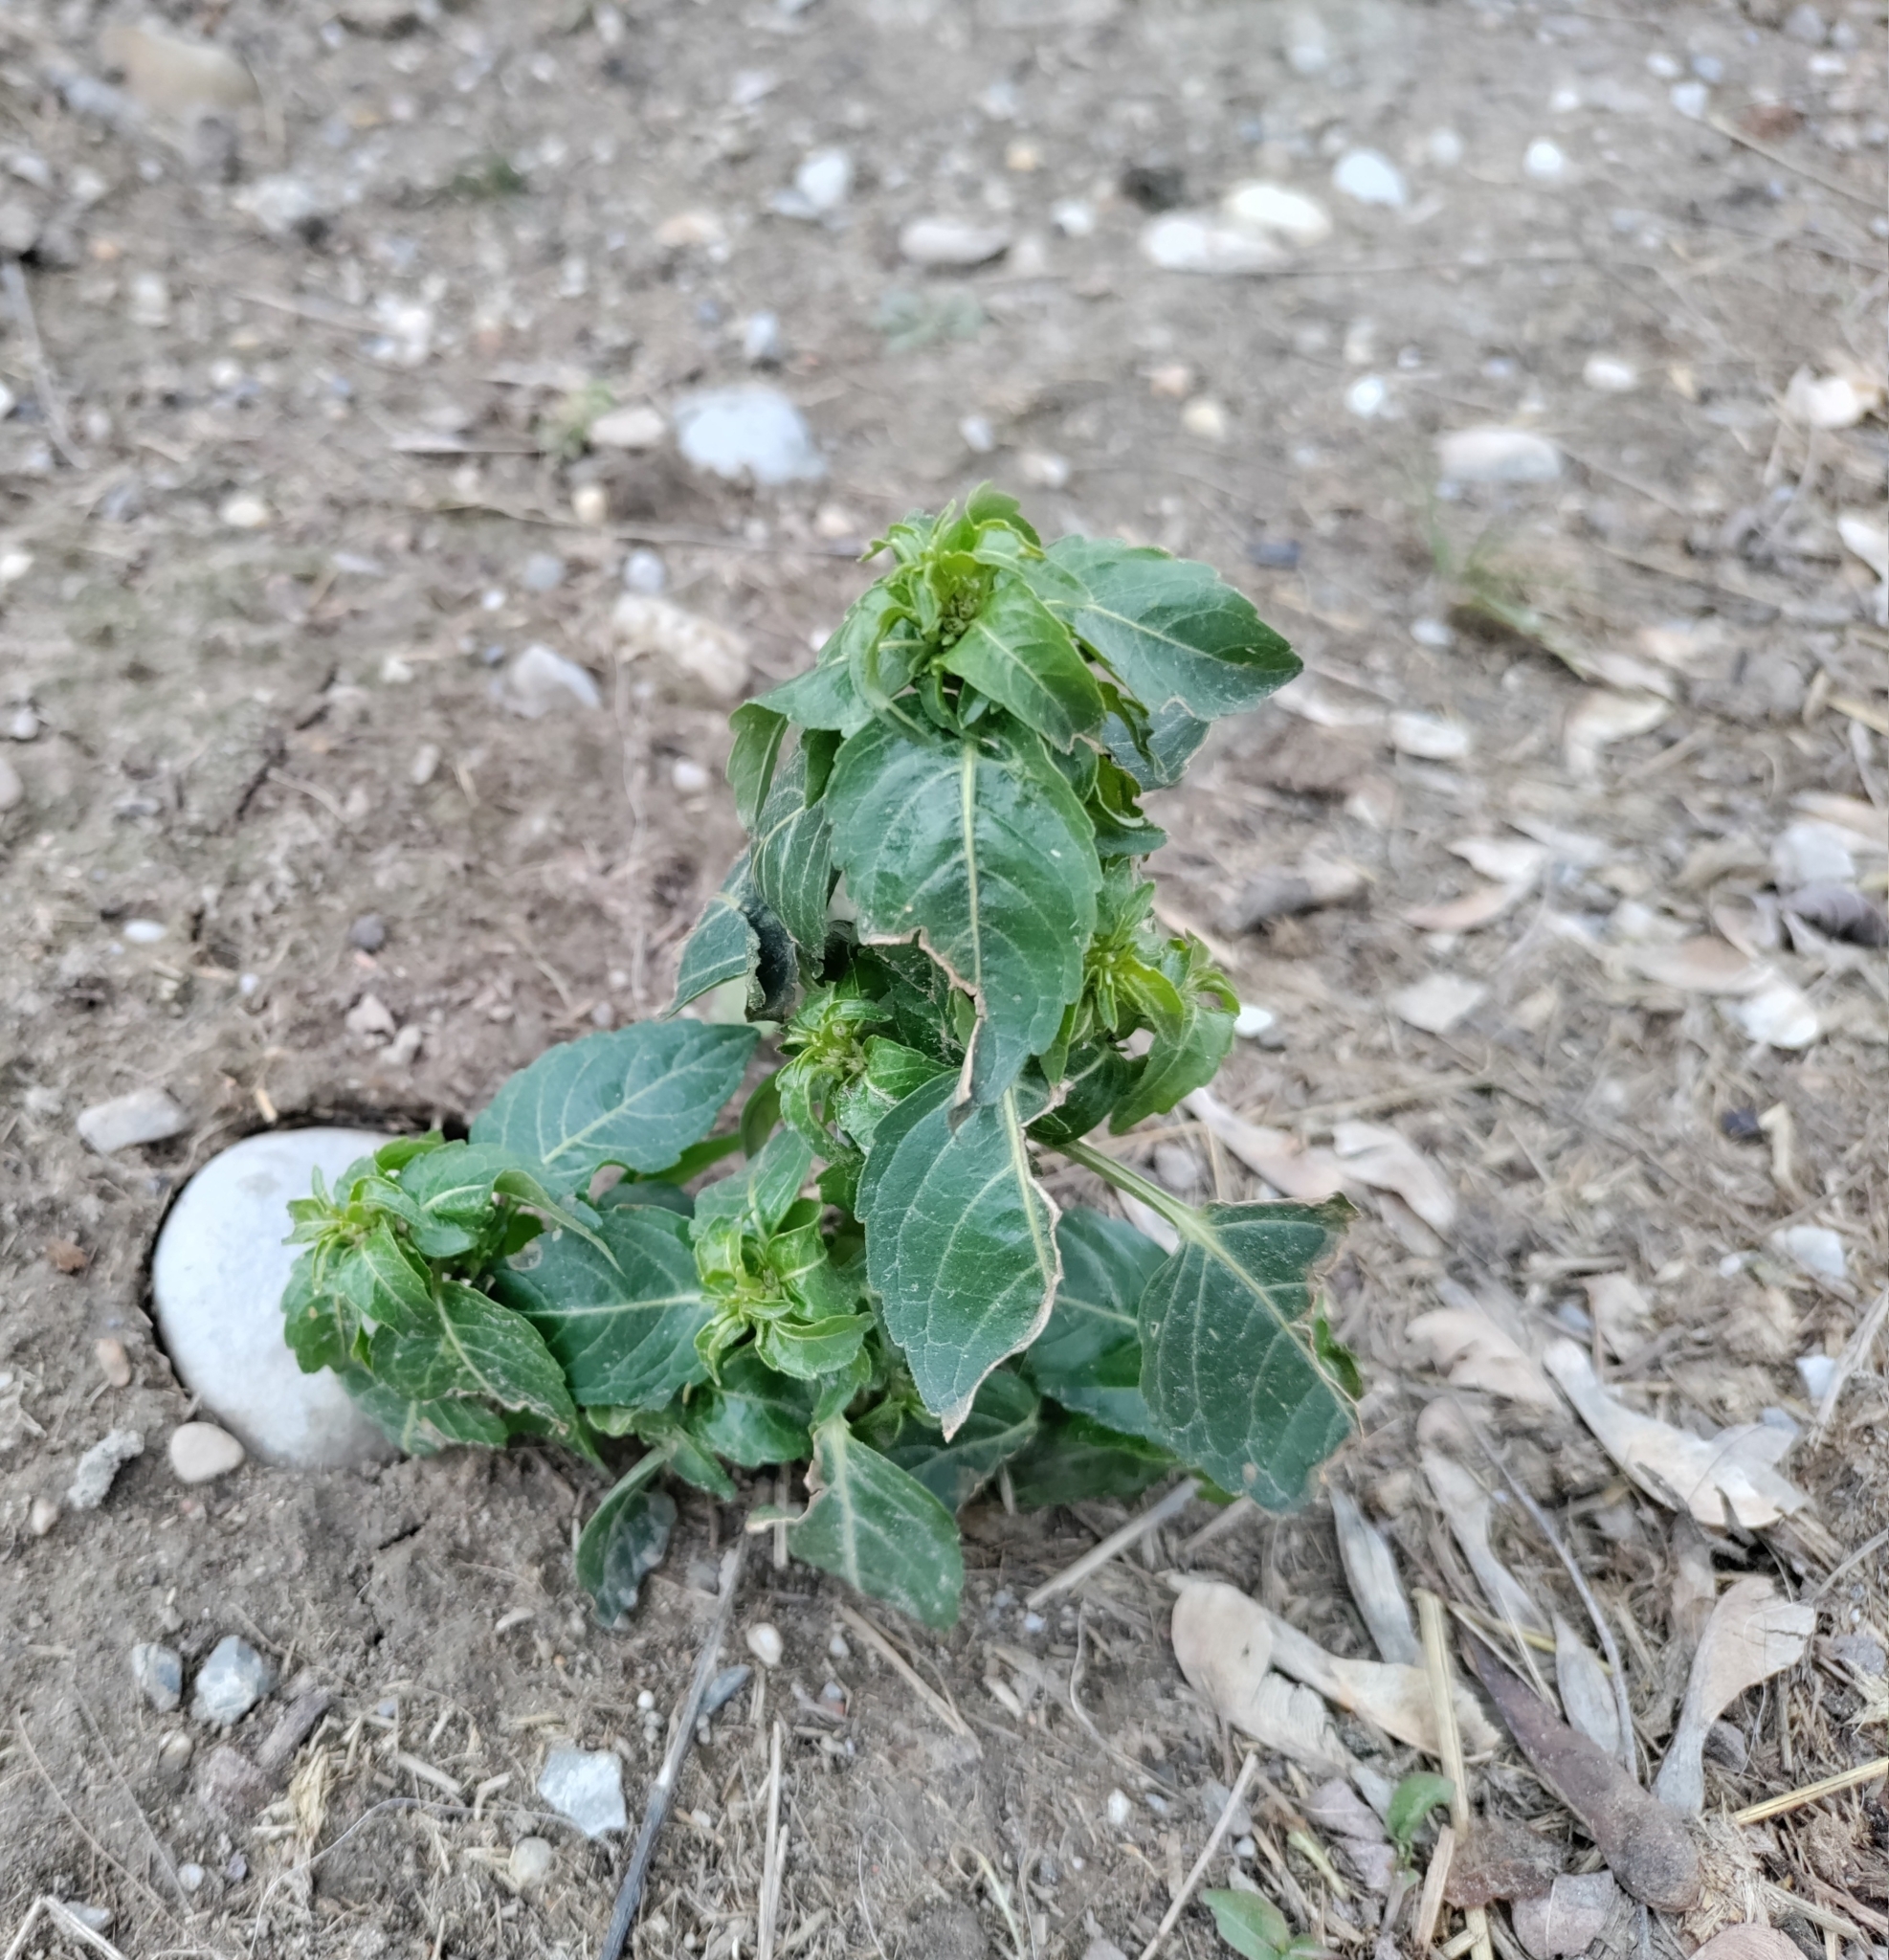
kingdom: Plantae
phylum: Tracheophyta
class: Magnoliopsida
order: Malpighiales
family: Euphorbiaceae
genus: Mercurialis
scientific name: Mercurialis annua
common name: Annual mercury
